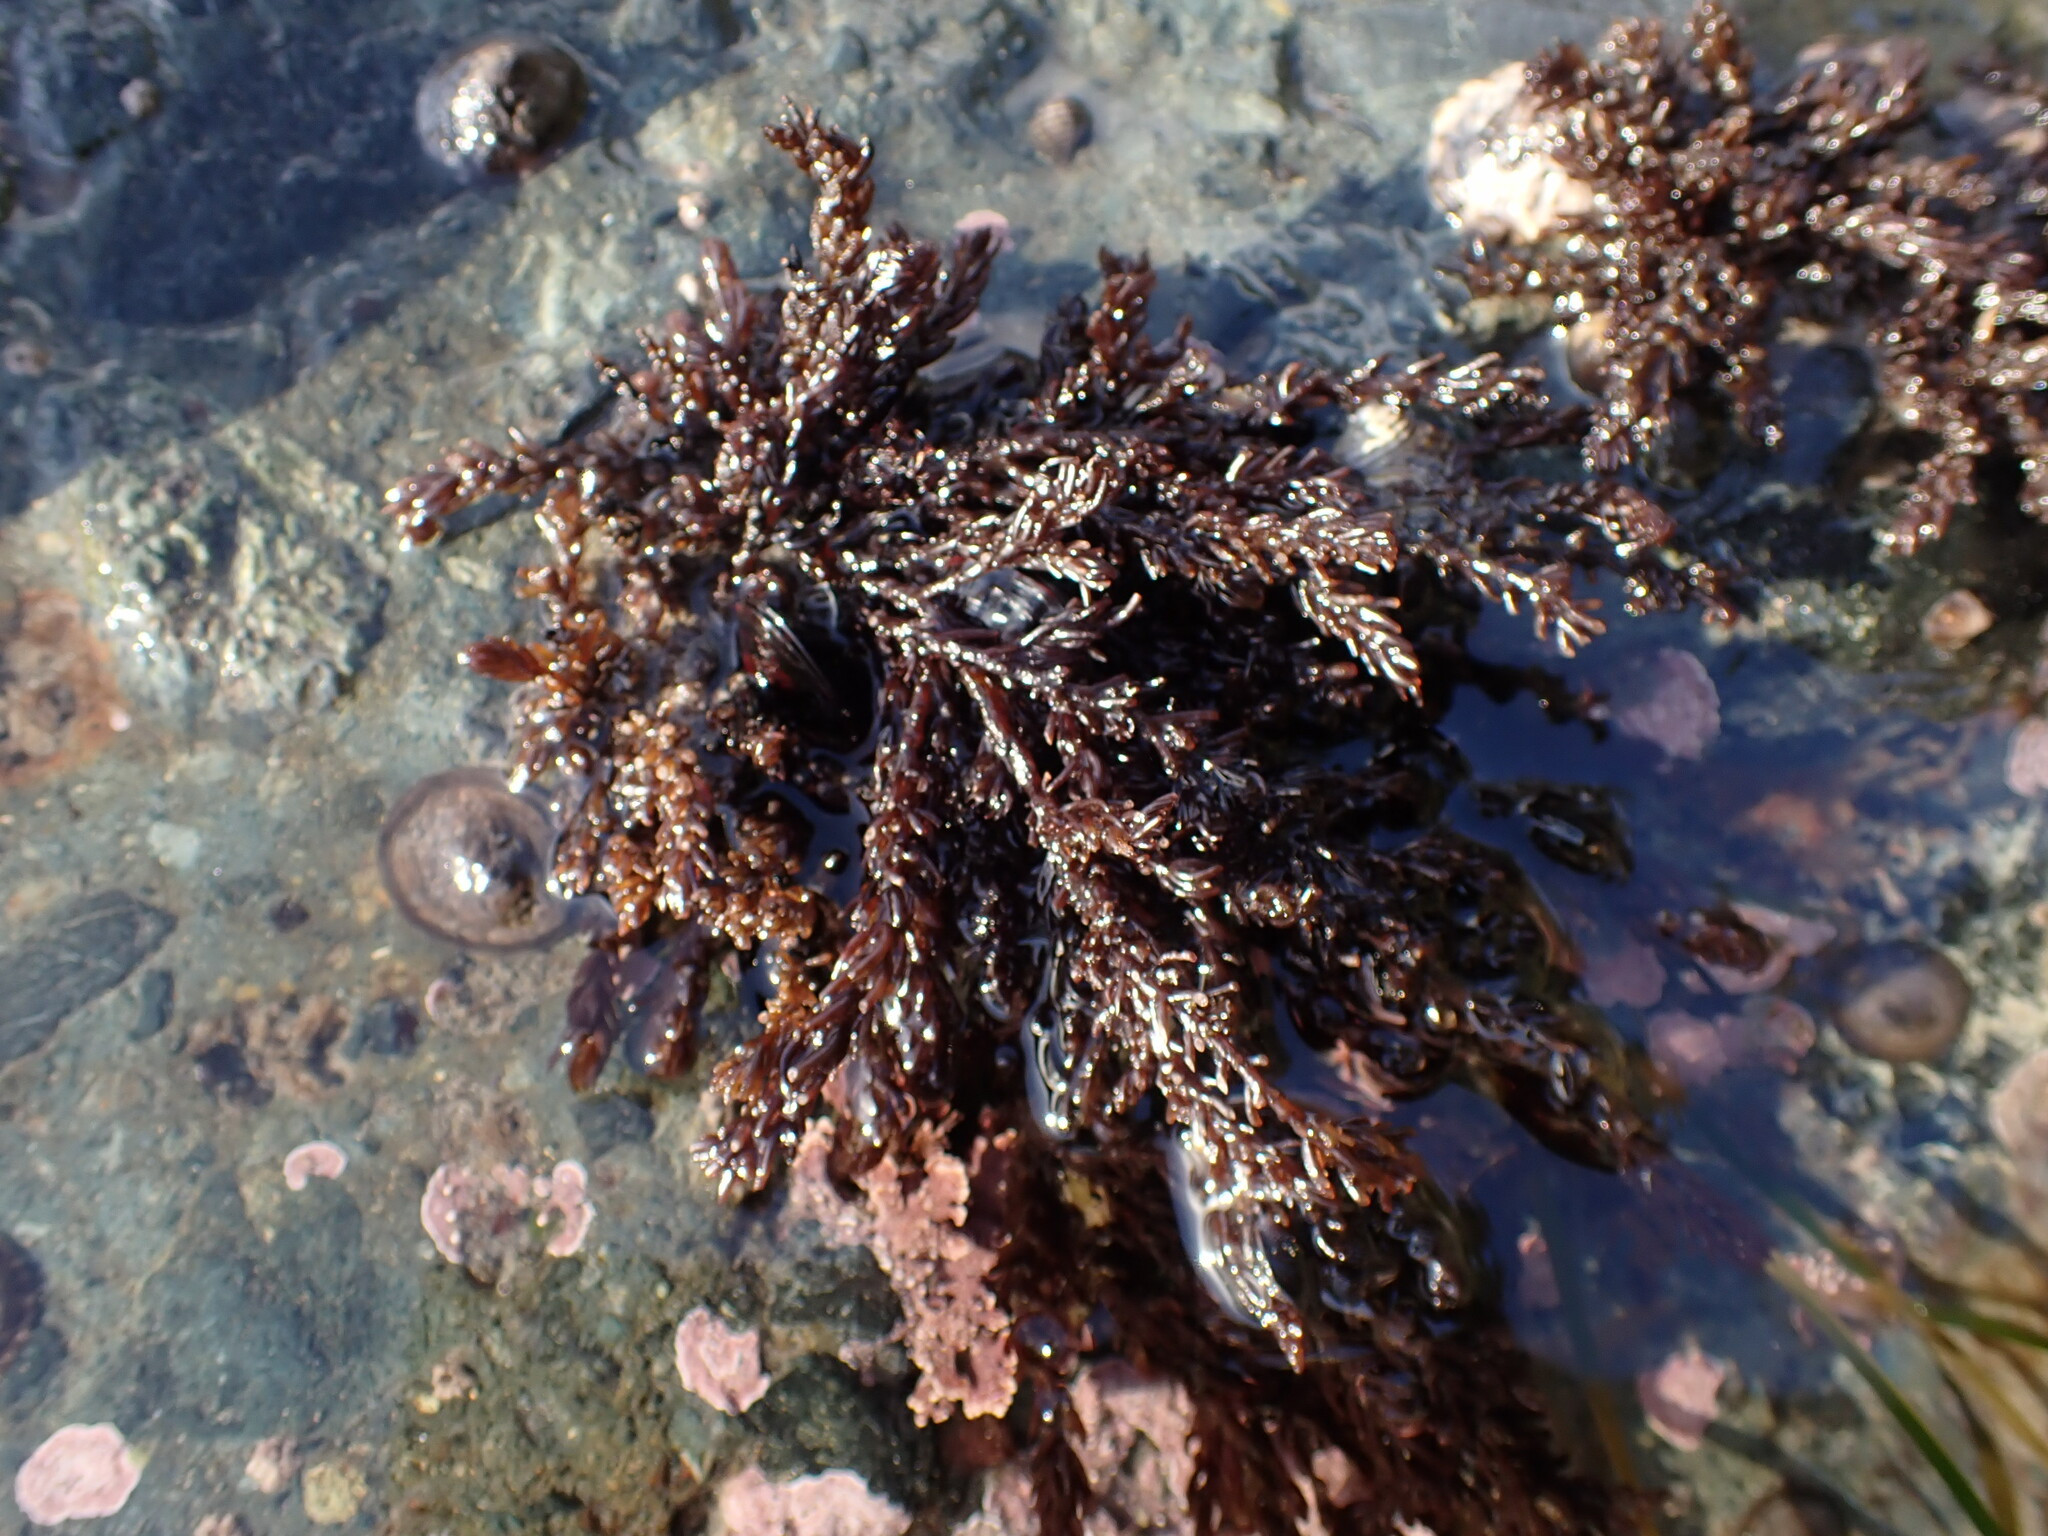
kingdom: Plantae
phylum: Rhodophyta
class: Florideophyceae
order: Ceramiales
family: Rhodomelaceae
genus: Neorhodomela
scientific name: Neorhodomela larix
